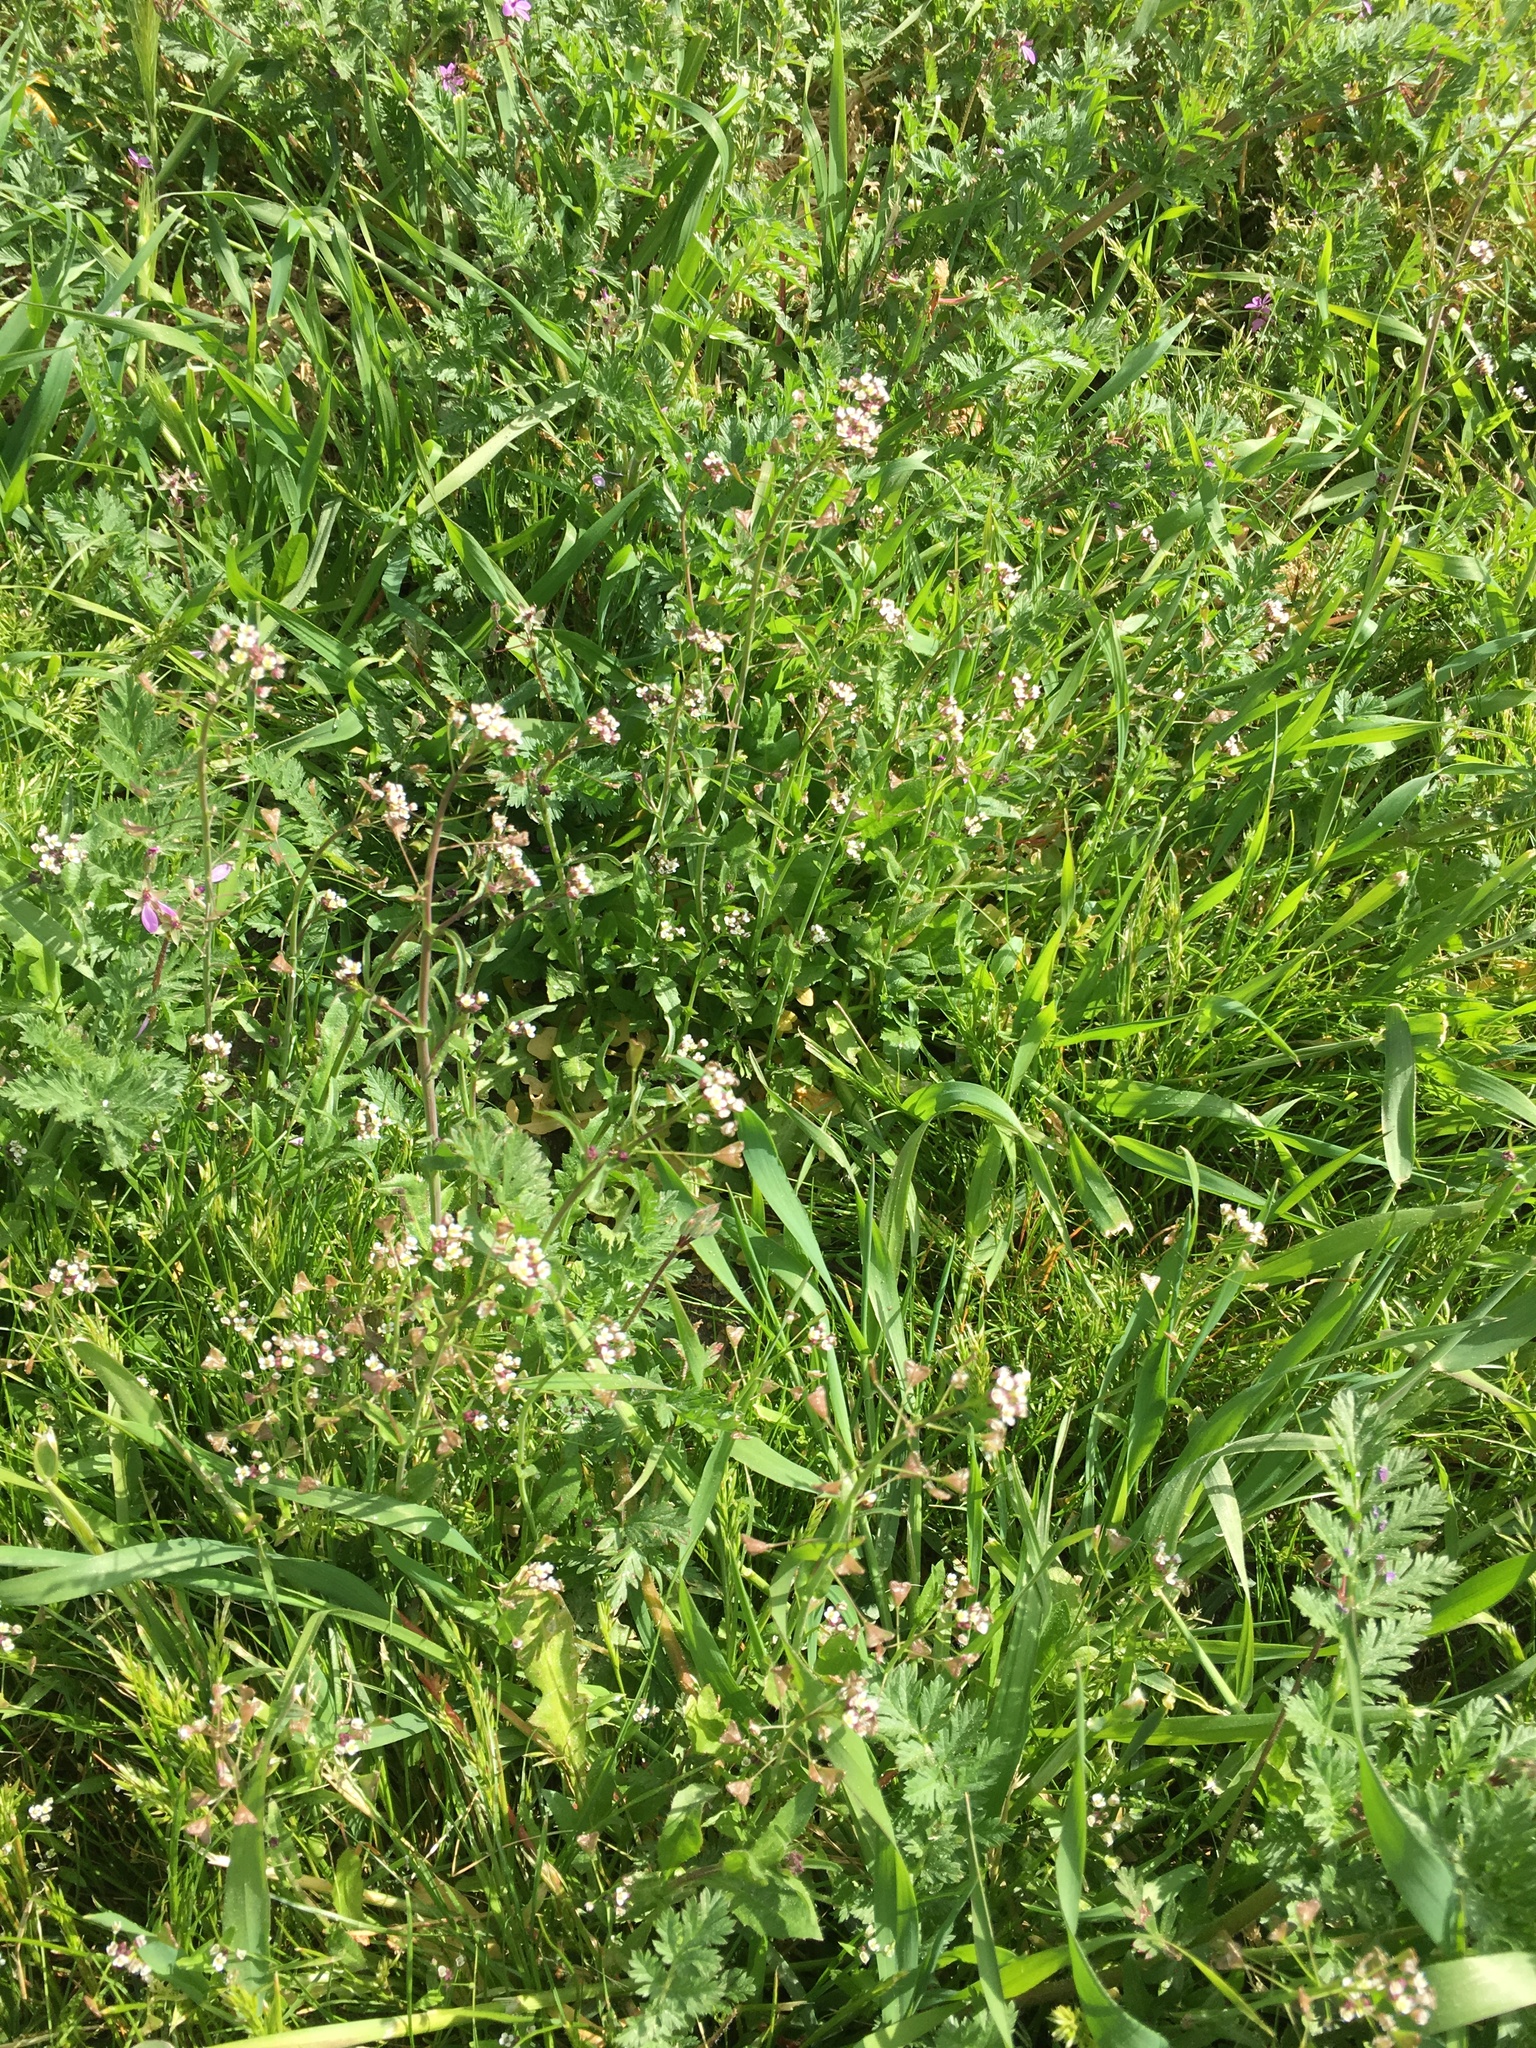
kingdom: Plantae
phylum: Tracheophyta
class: Magnoliopsida
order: Brassicales
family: Brassicaceae
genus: Capsella
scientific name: Capsella bursa-pastoris
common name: Shepherd's purse
